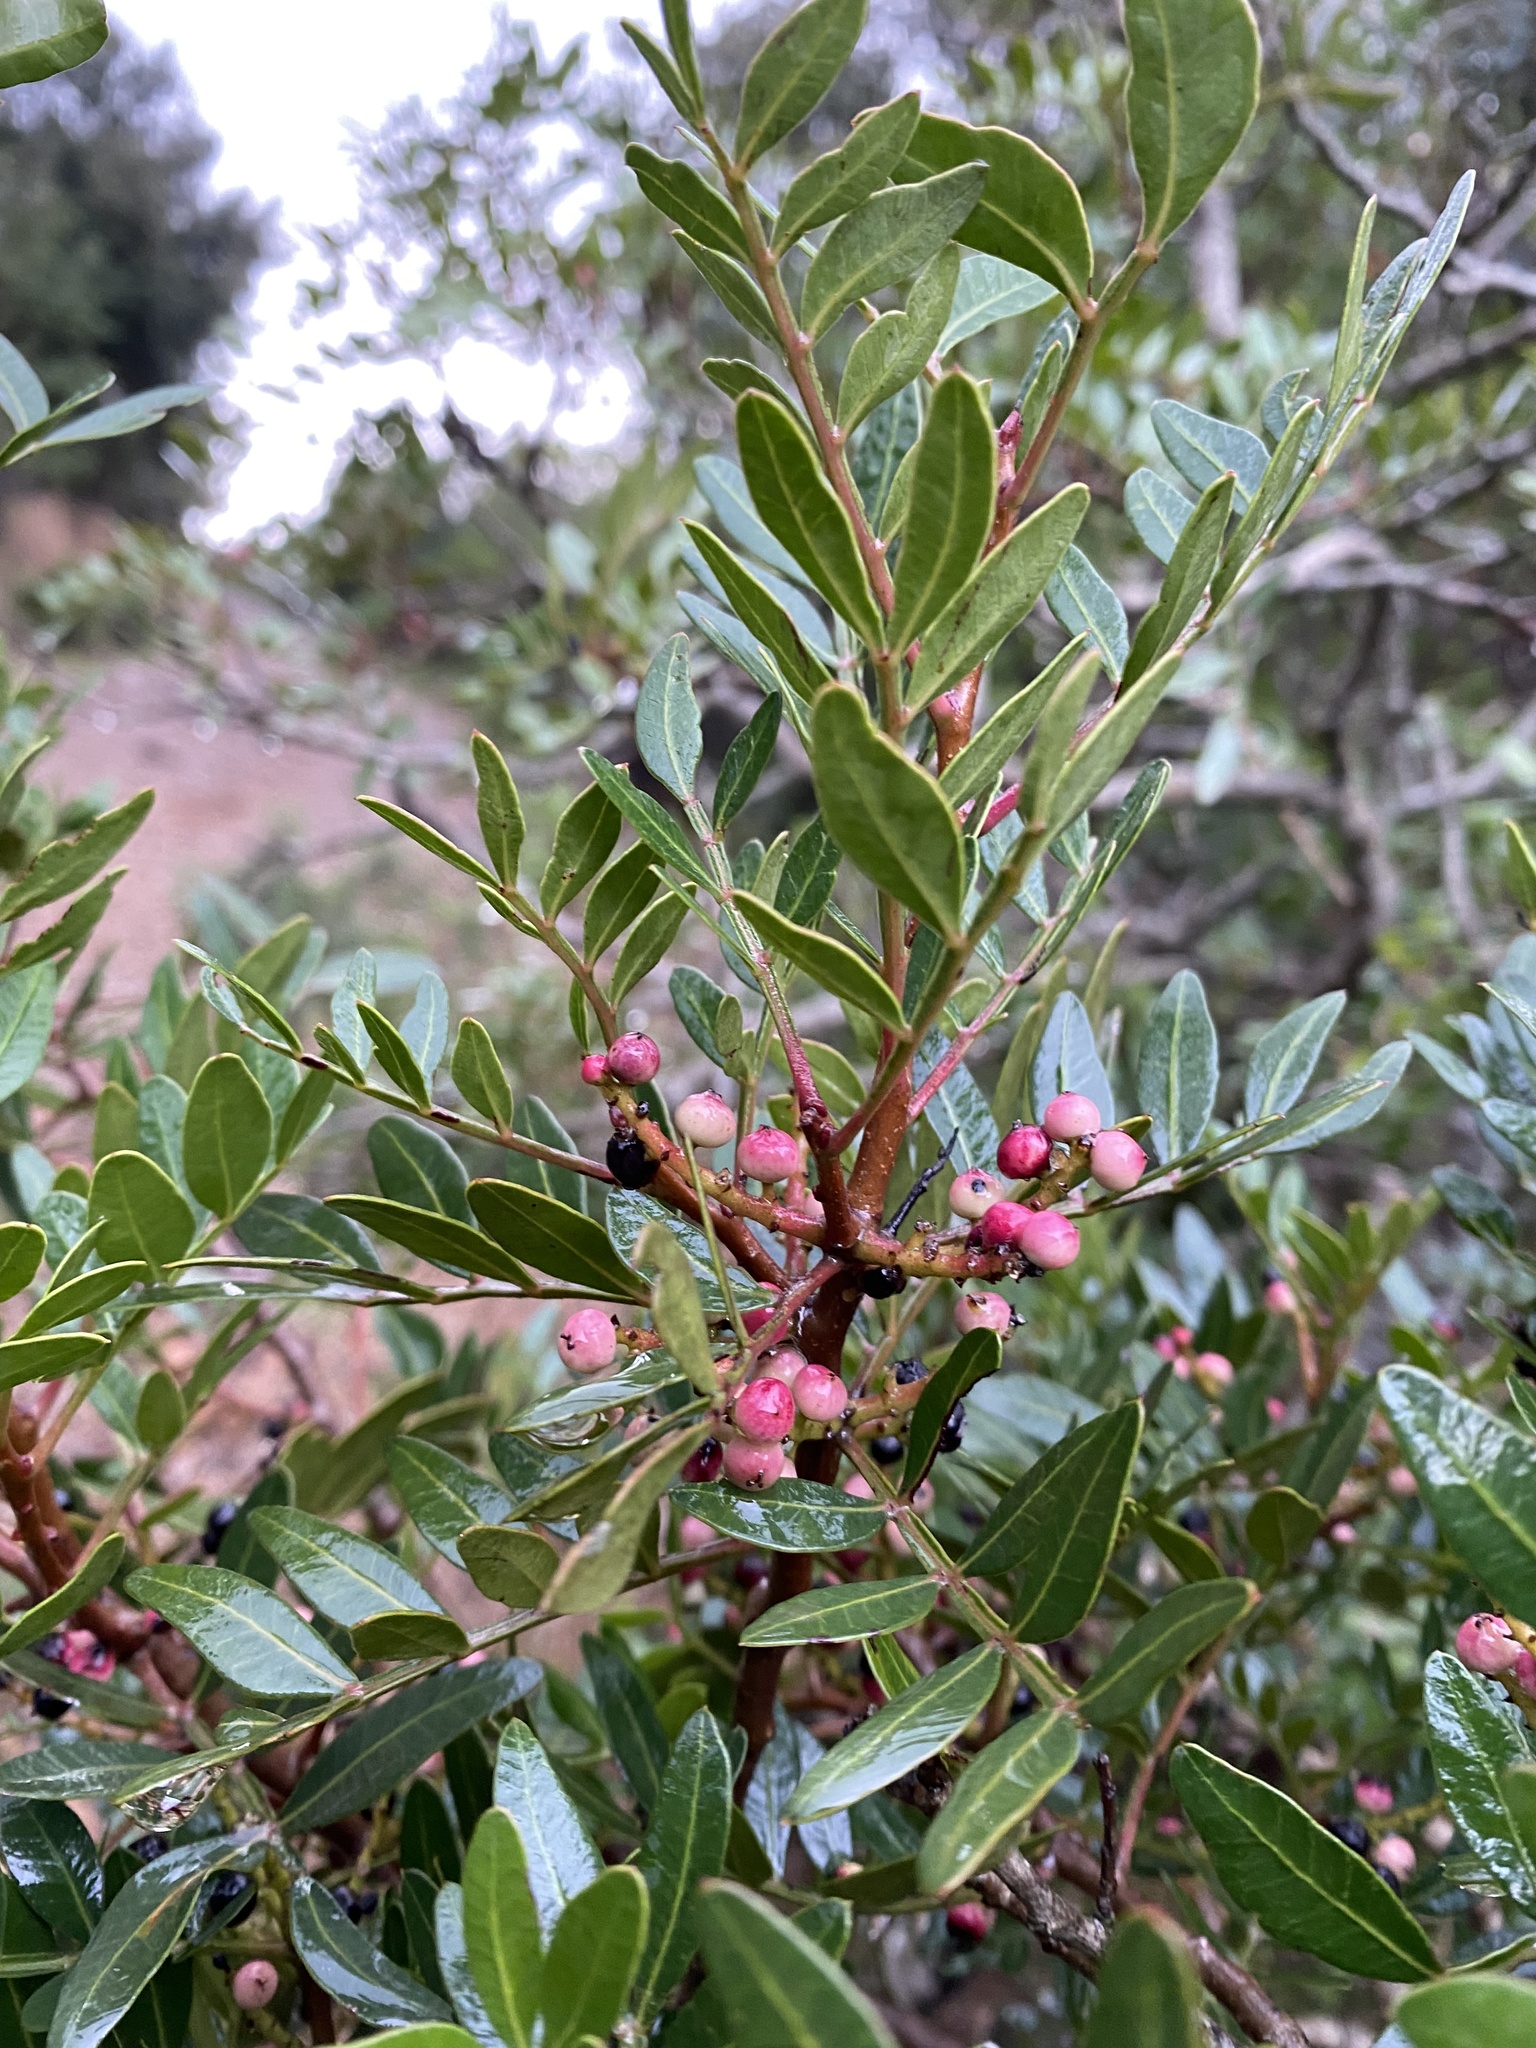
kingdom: Plantae
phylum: Tracheophyta
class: Magnoliopsida
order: Sapindales
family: Anacardiaceae
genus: Pistacia
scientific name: Pistacia lentiscus
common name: Lentisk
